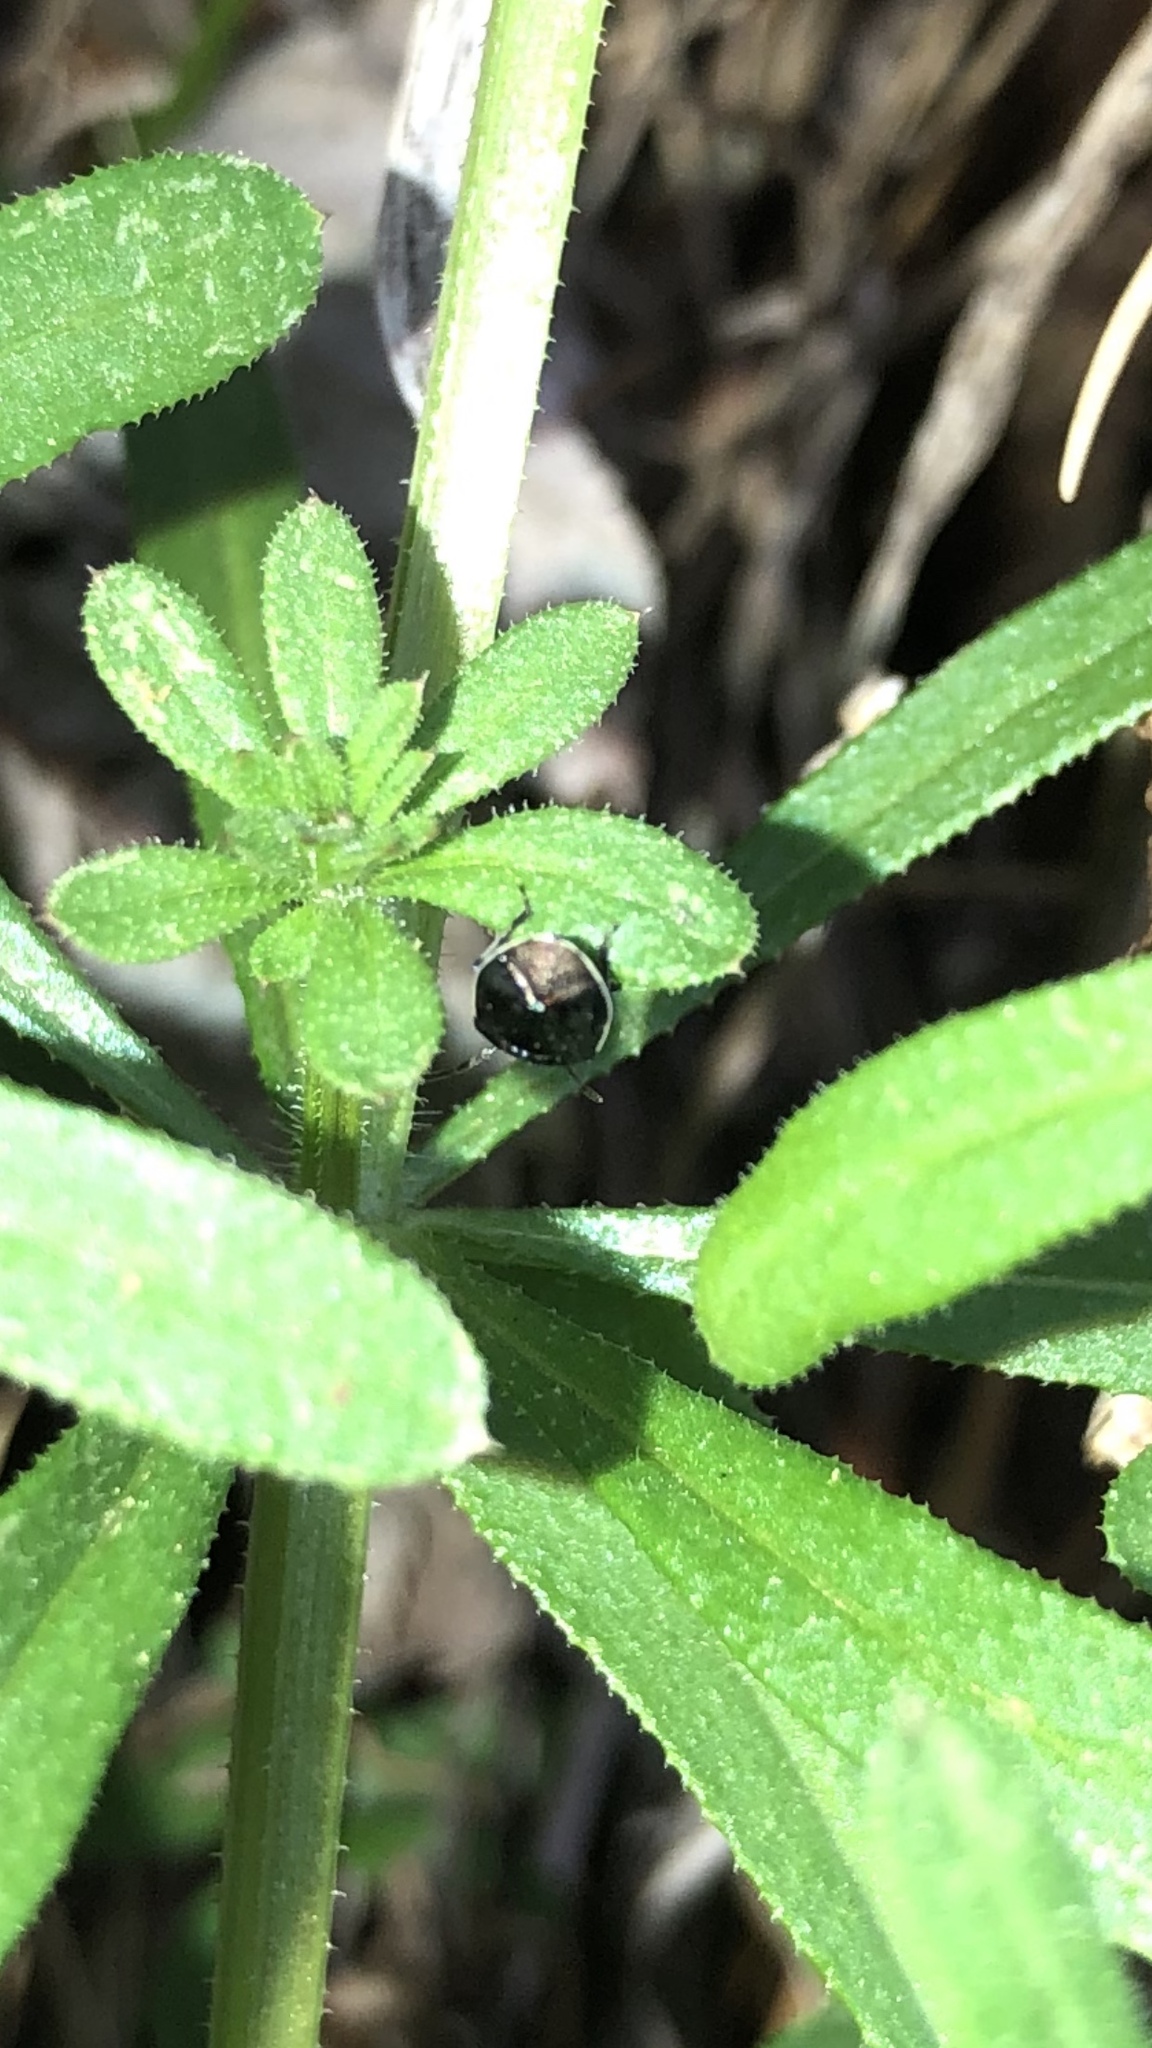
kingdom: Animalia
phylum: Arthropoda
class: Insecta
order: Hemiptera
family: Cydnidae
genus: Sehirus
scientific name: Sehirus cinctus
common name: White-margined burrower bug
